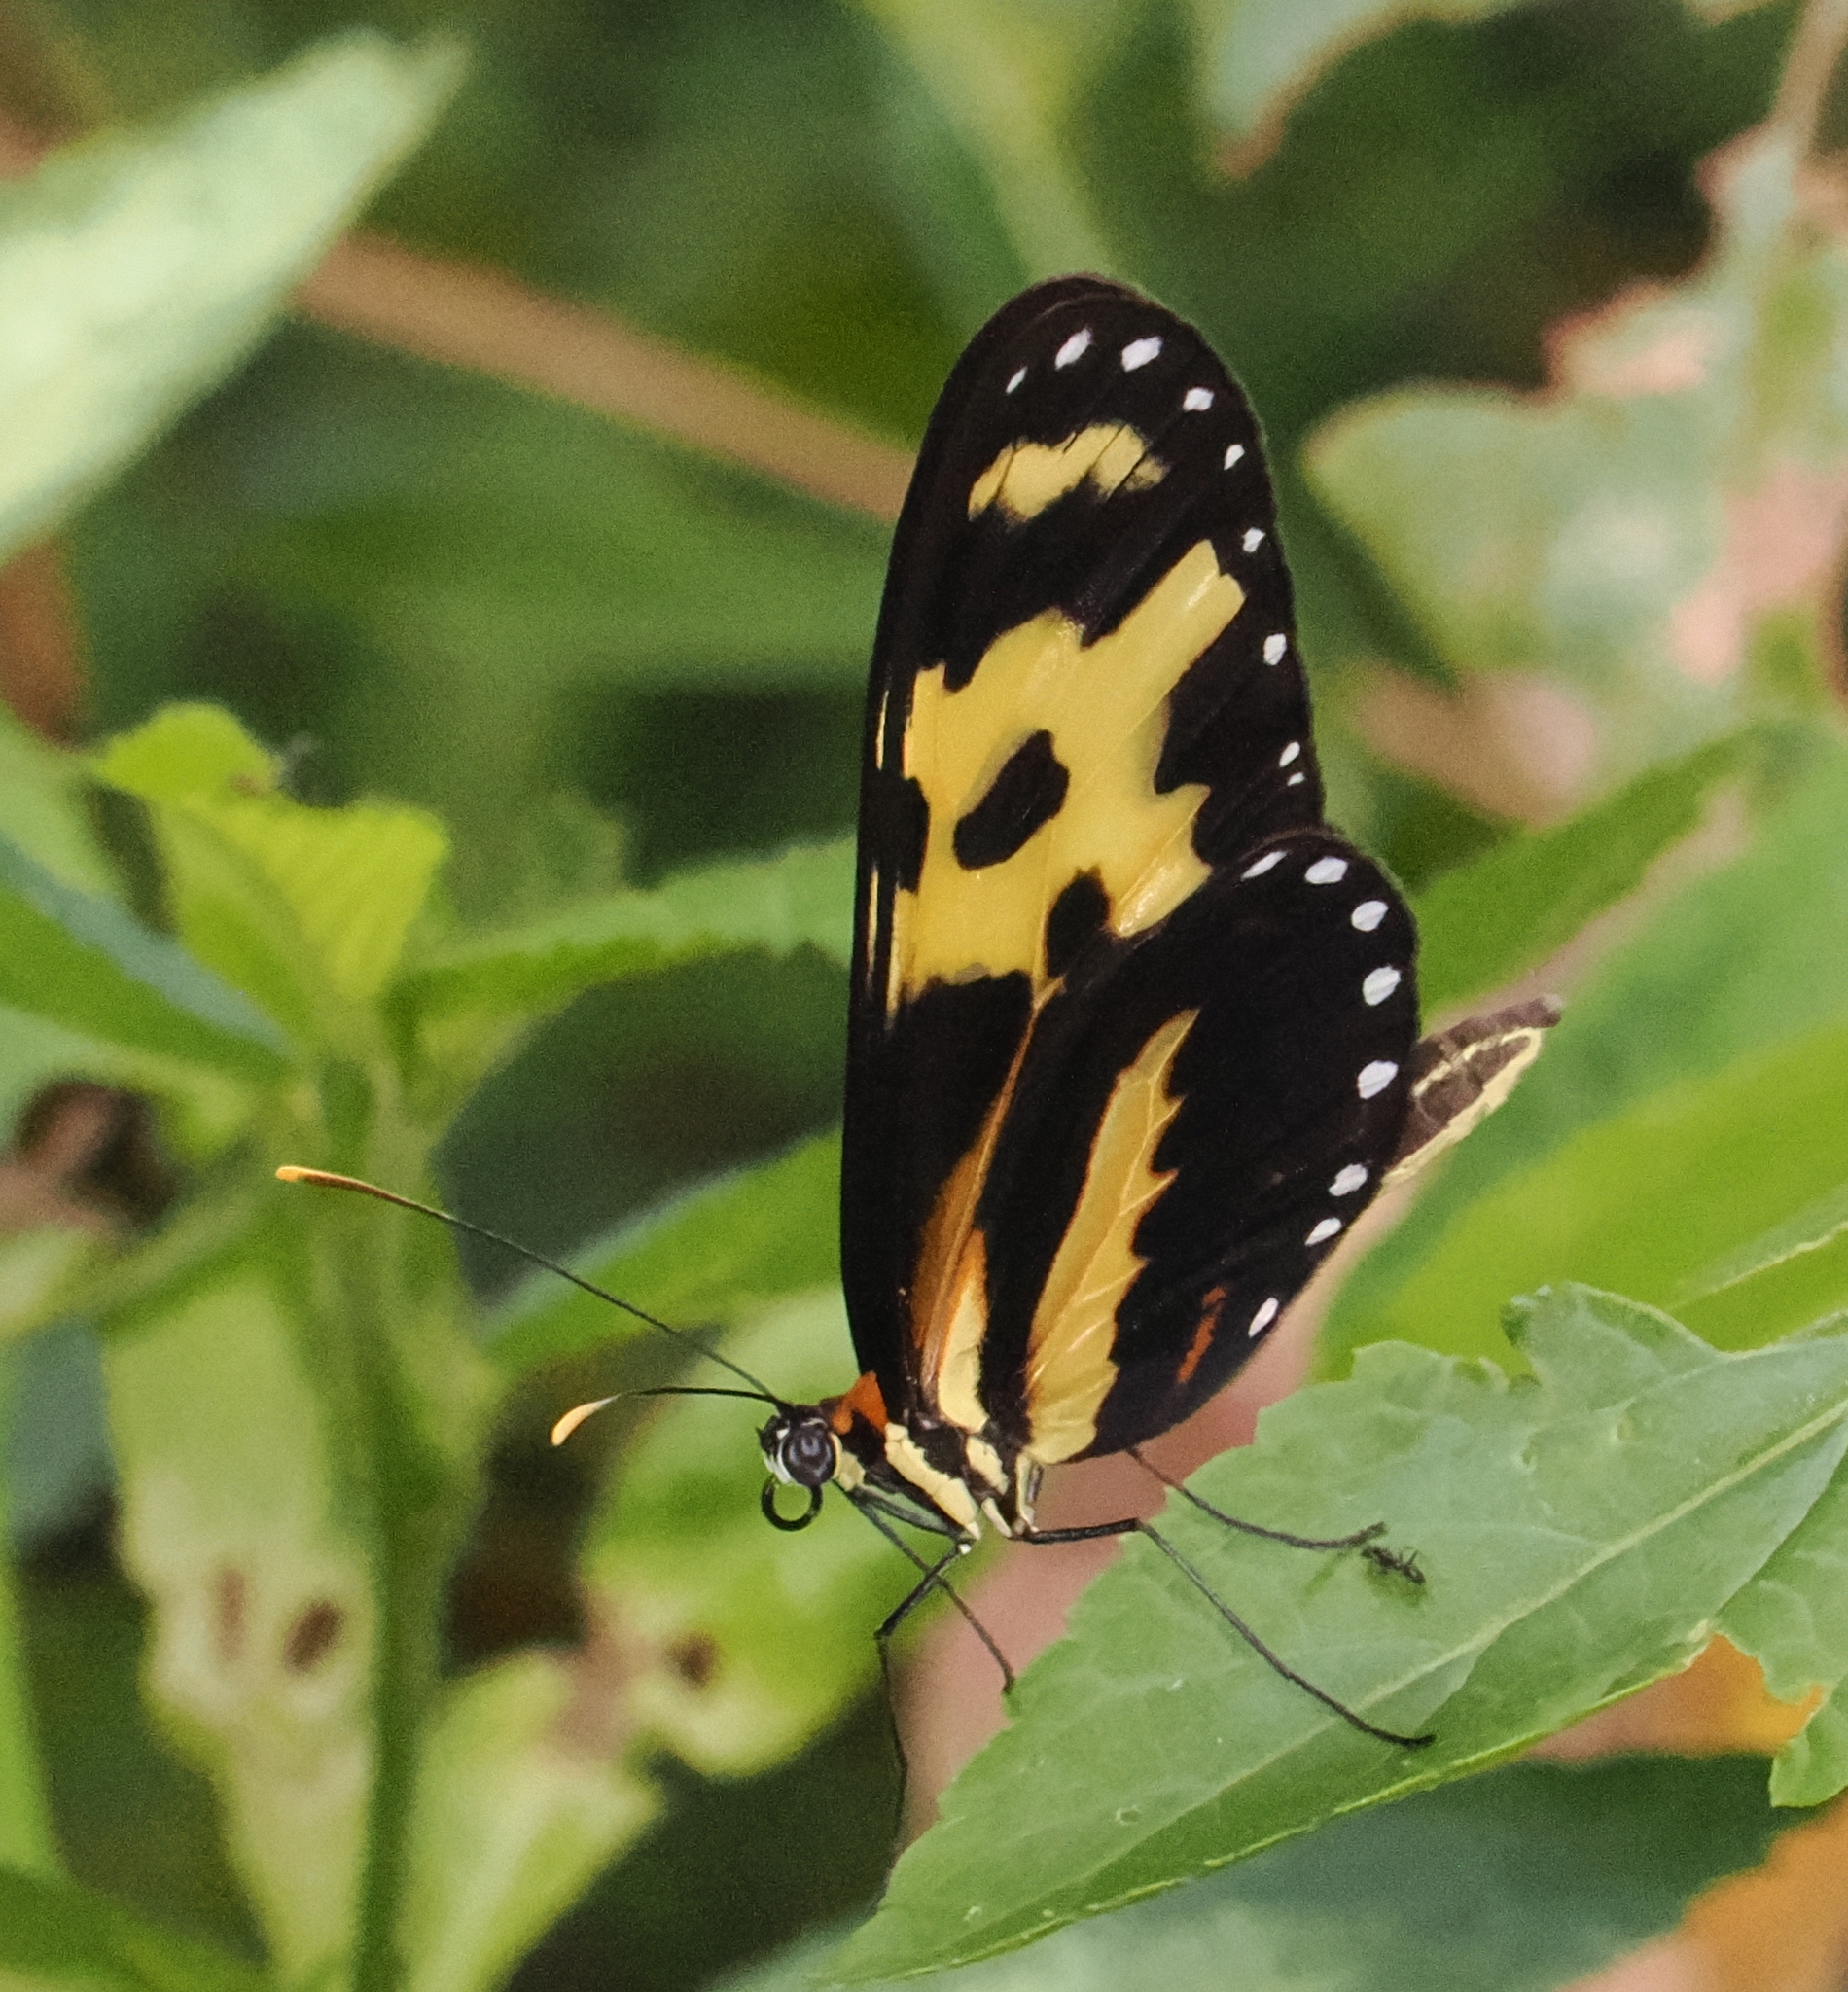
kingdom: Animalia
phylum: Arthropoda
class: Insecta
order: Lepidoptera
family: Nymphalidae
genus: Mechanitis
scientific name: Mechanitis polymnia
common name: Disturbed tigerwing
